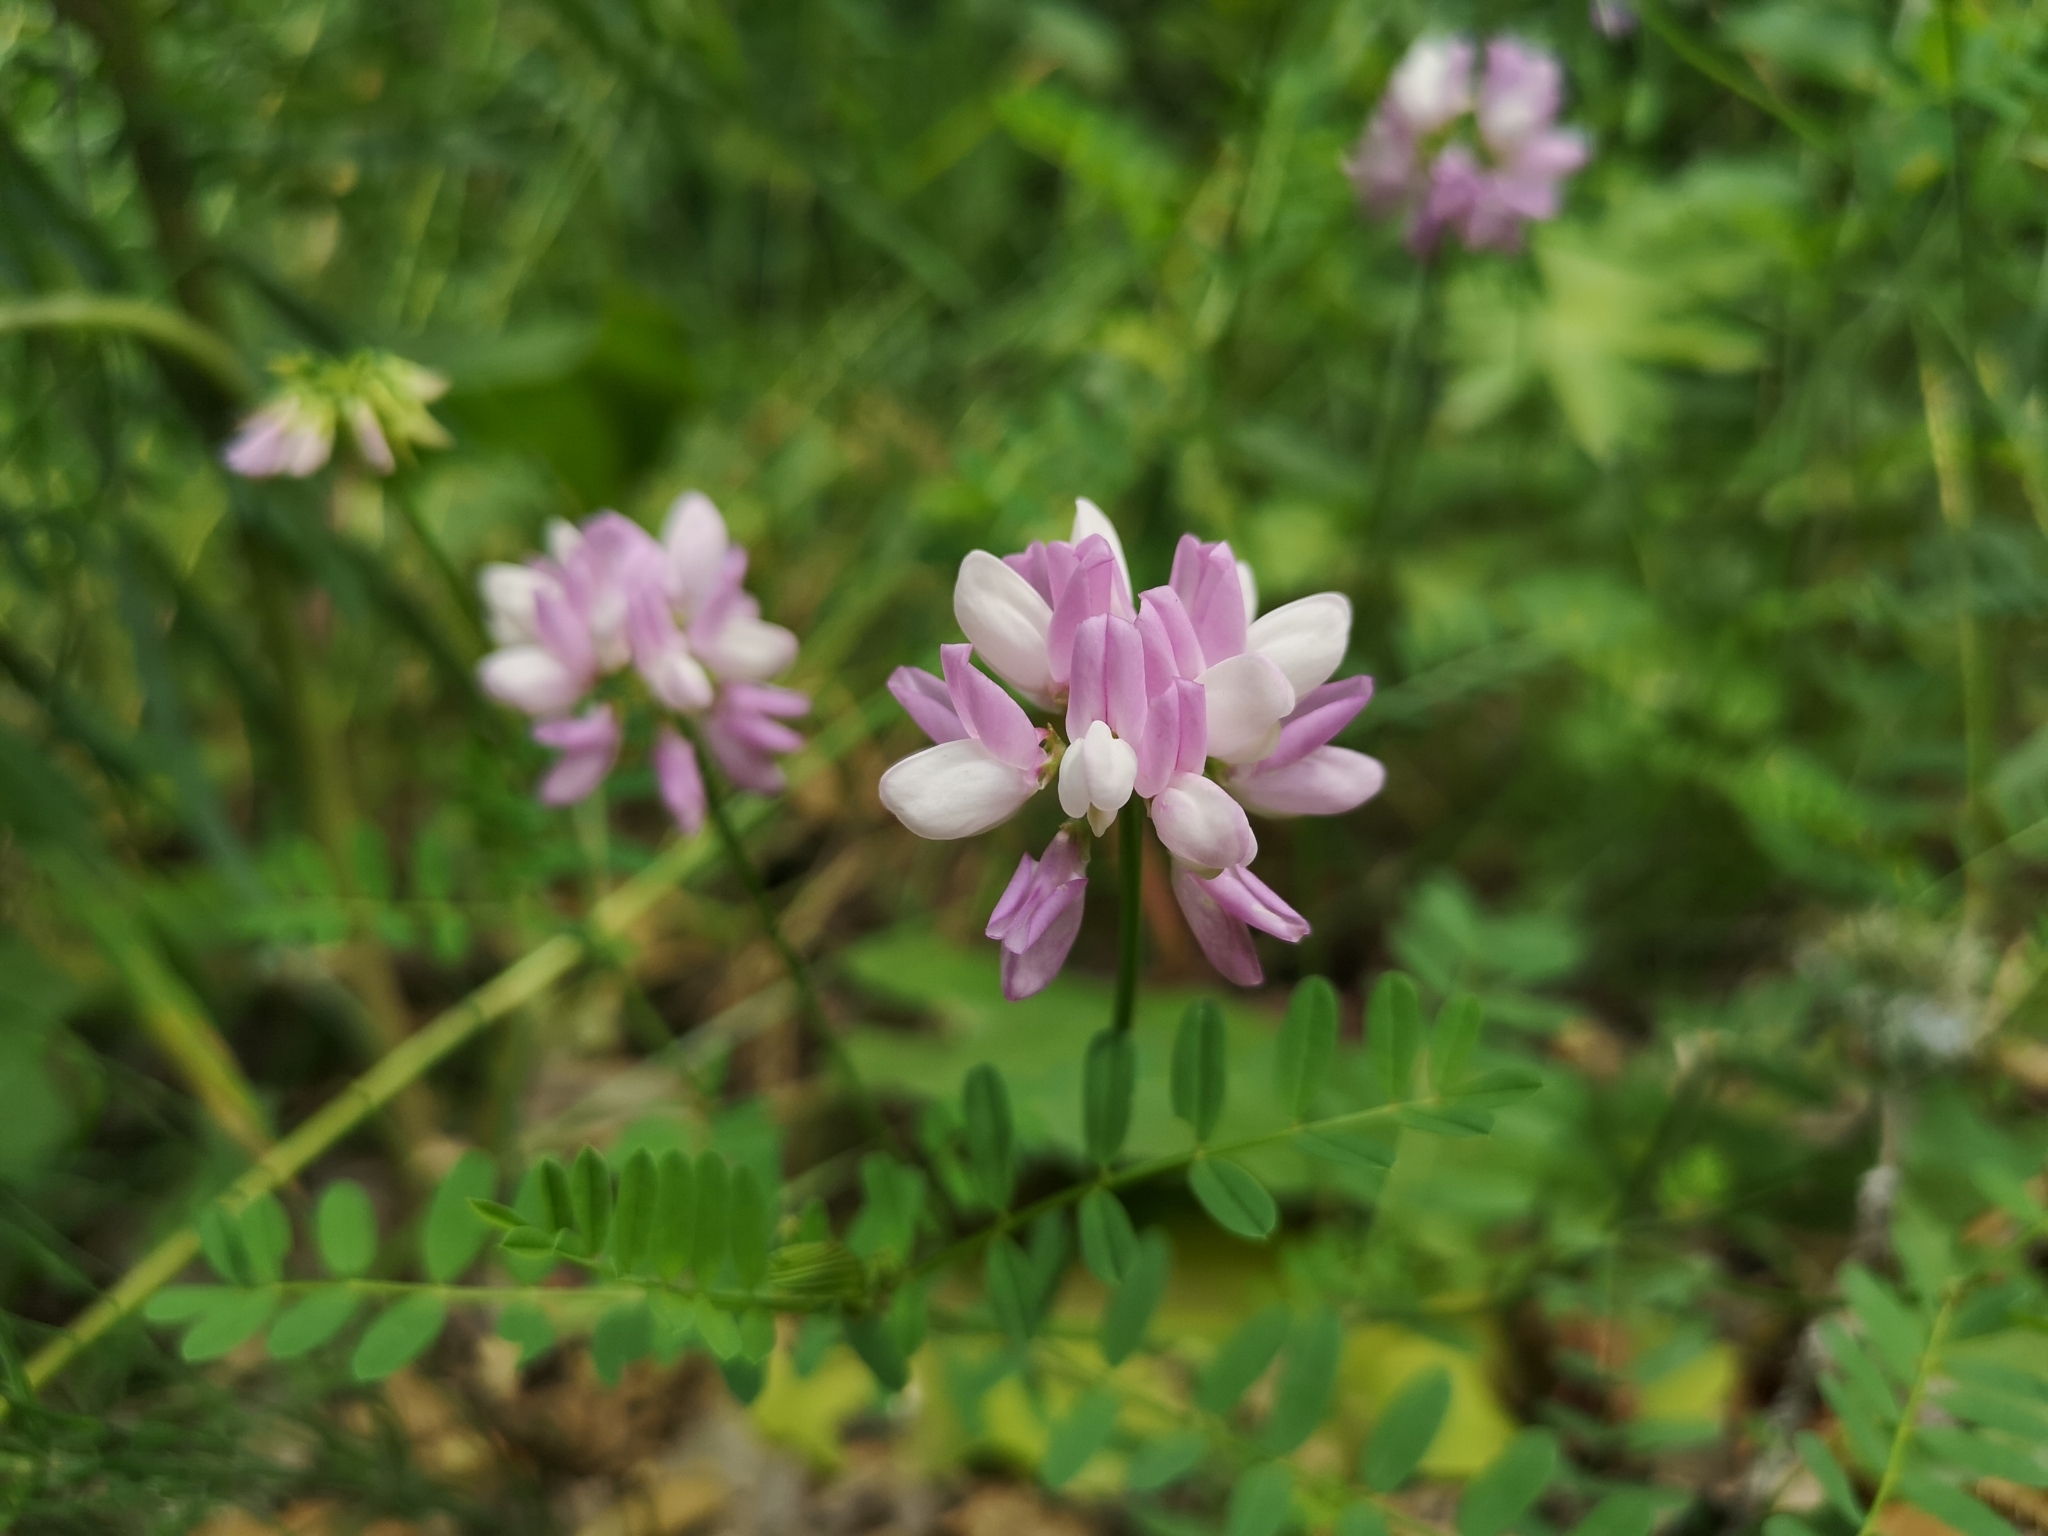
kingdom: Plantae
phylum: Tracheophyta
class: Magnoliopsida
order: Fabales
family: Fabaceae
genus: Coronilla
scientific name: Coronilla varia
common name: Crownvetch
